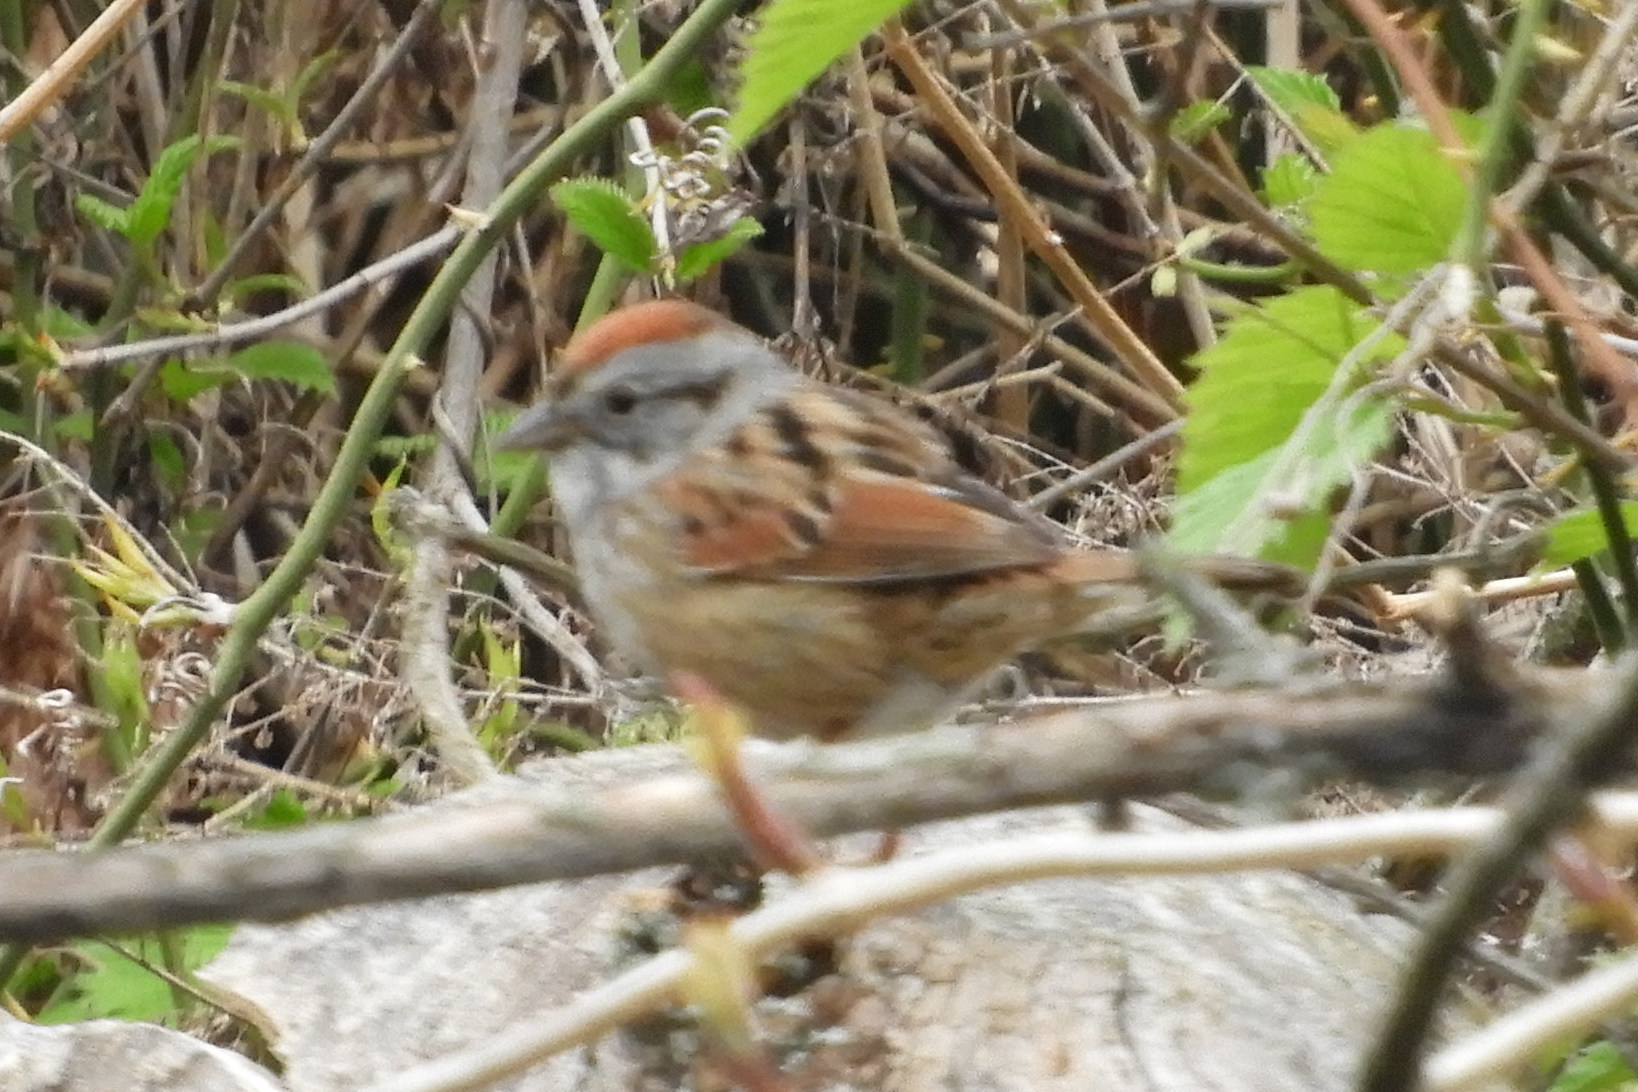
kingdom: Animalia
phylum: Chordata
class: Aves
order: Passeriformes
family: Passerellidae
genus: Melospiza
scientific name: Melospiza georgiana
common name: Swamp sparrow
